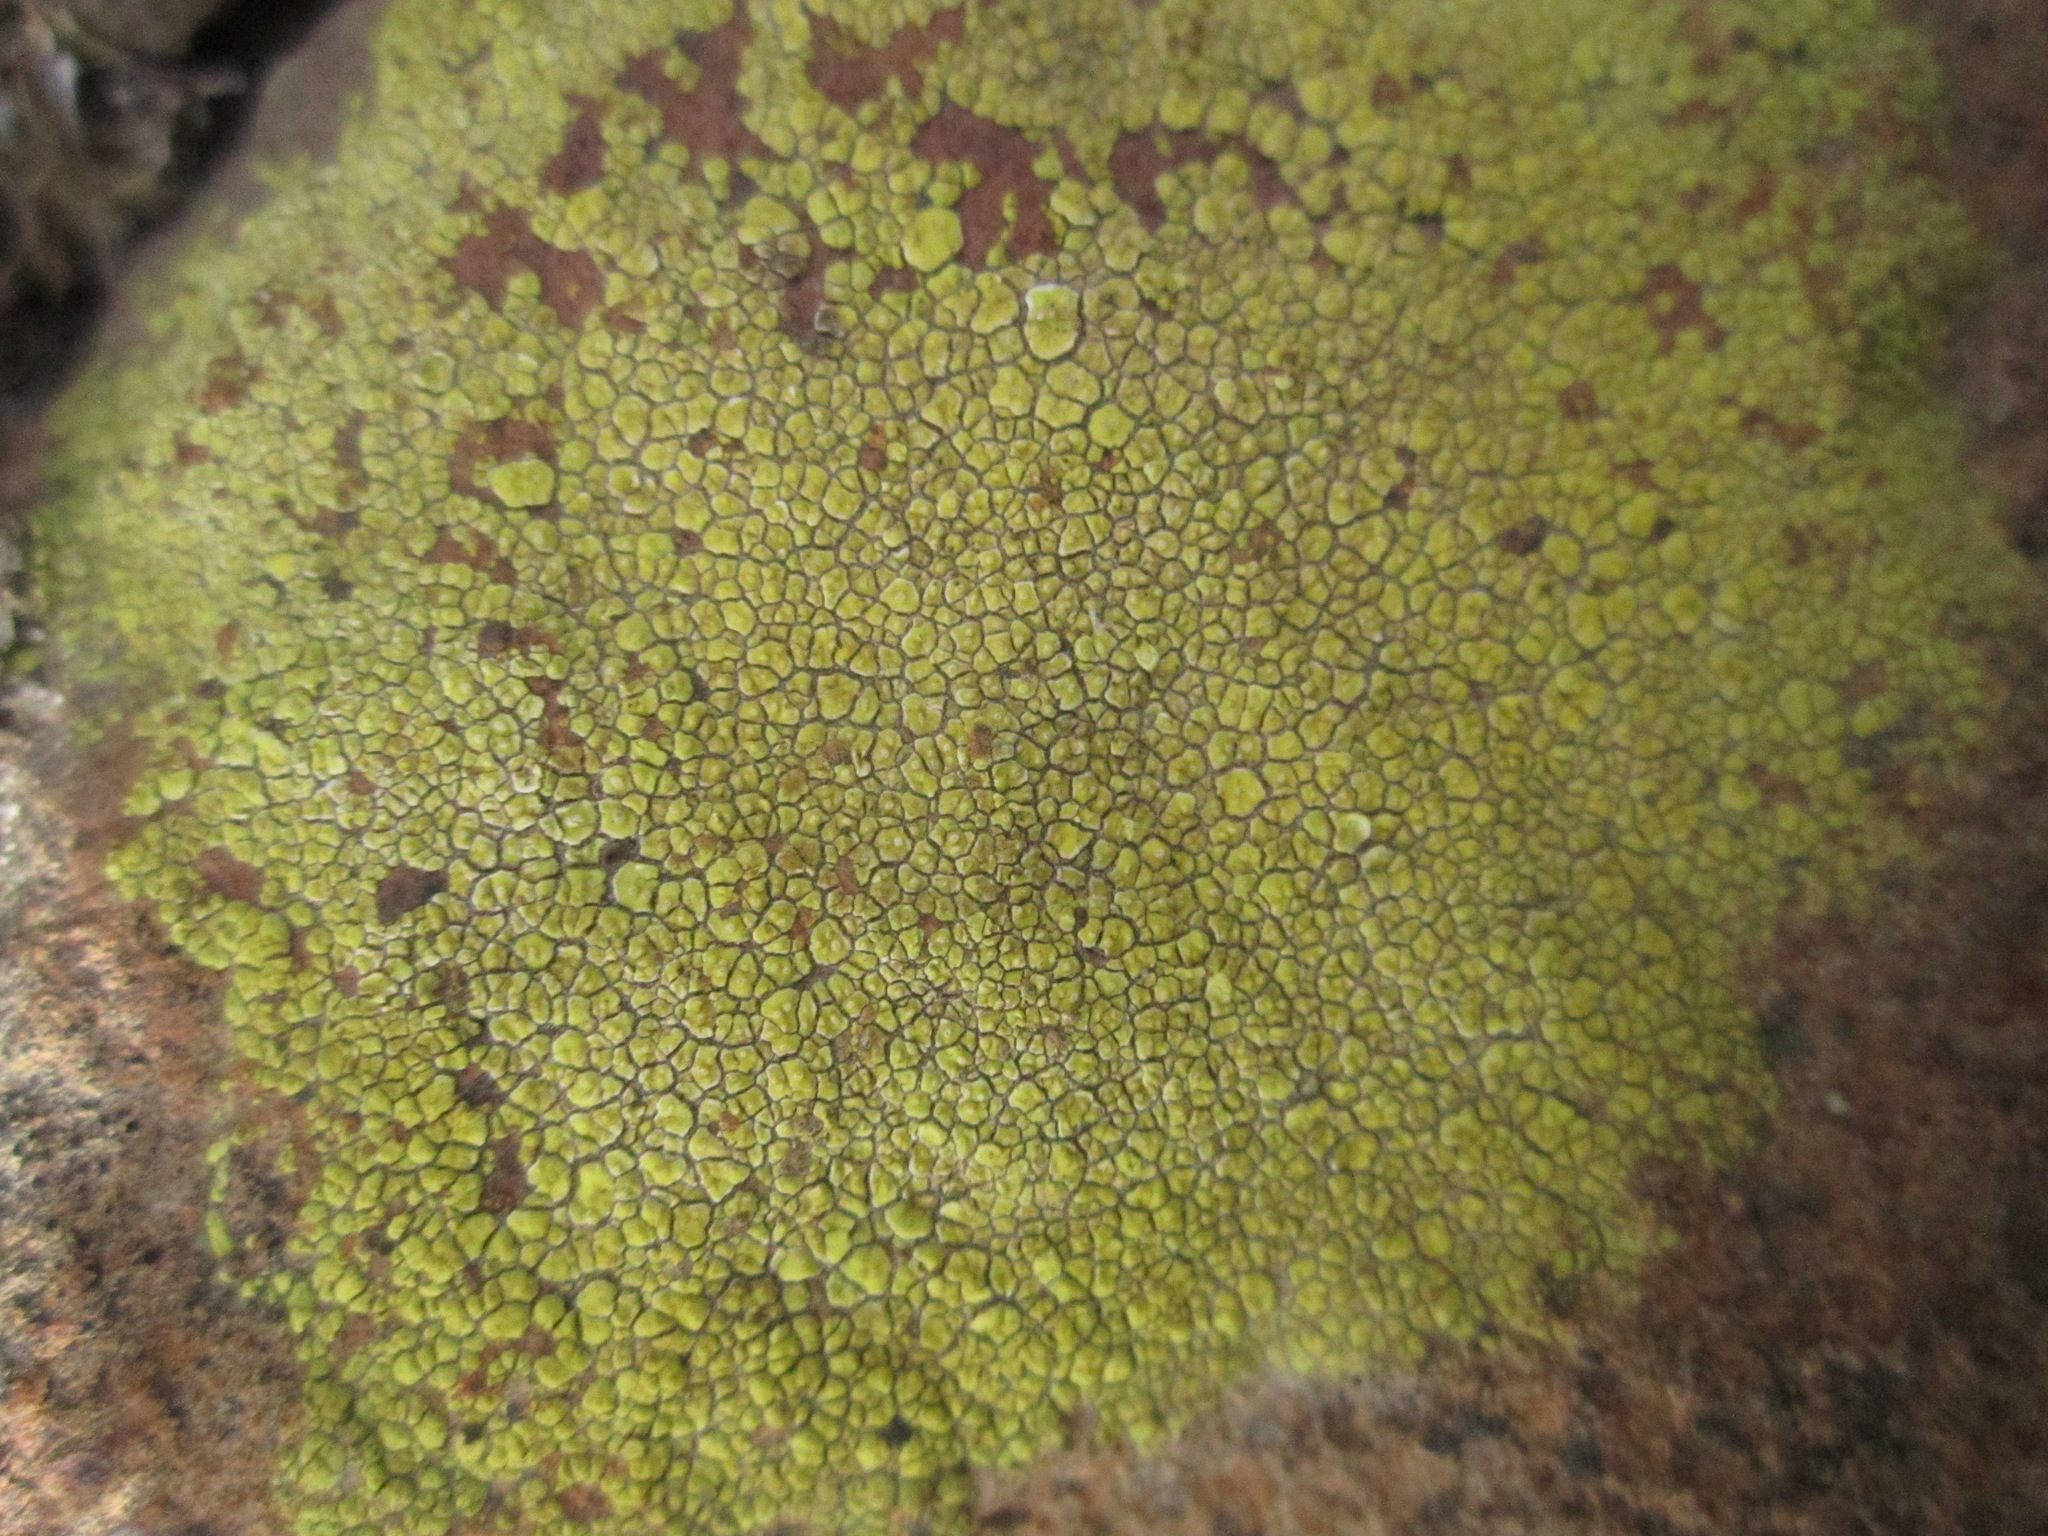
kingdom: Fungi
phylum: Ascomycota
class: Lecanoromycetes
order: Acarosporales
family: Acarosporaceae
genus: Acarospora
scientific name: Acarospora socialis
